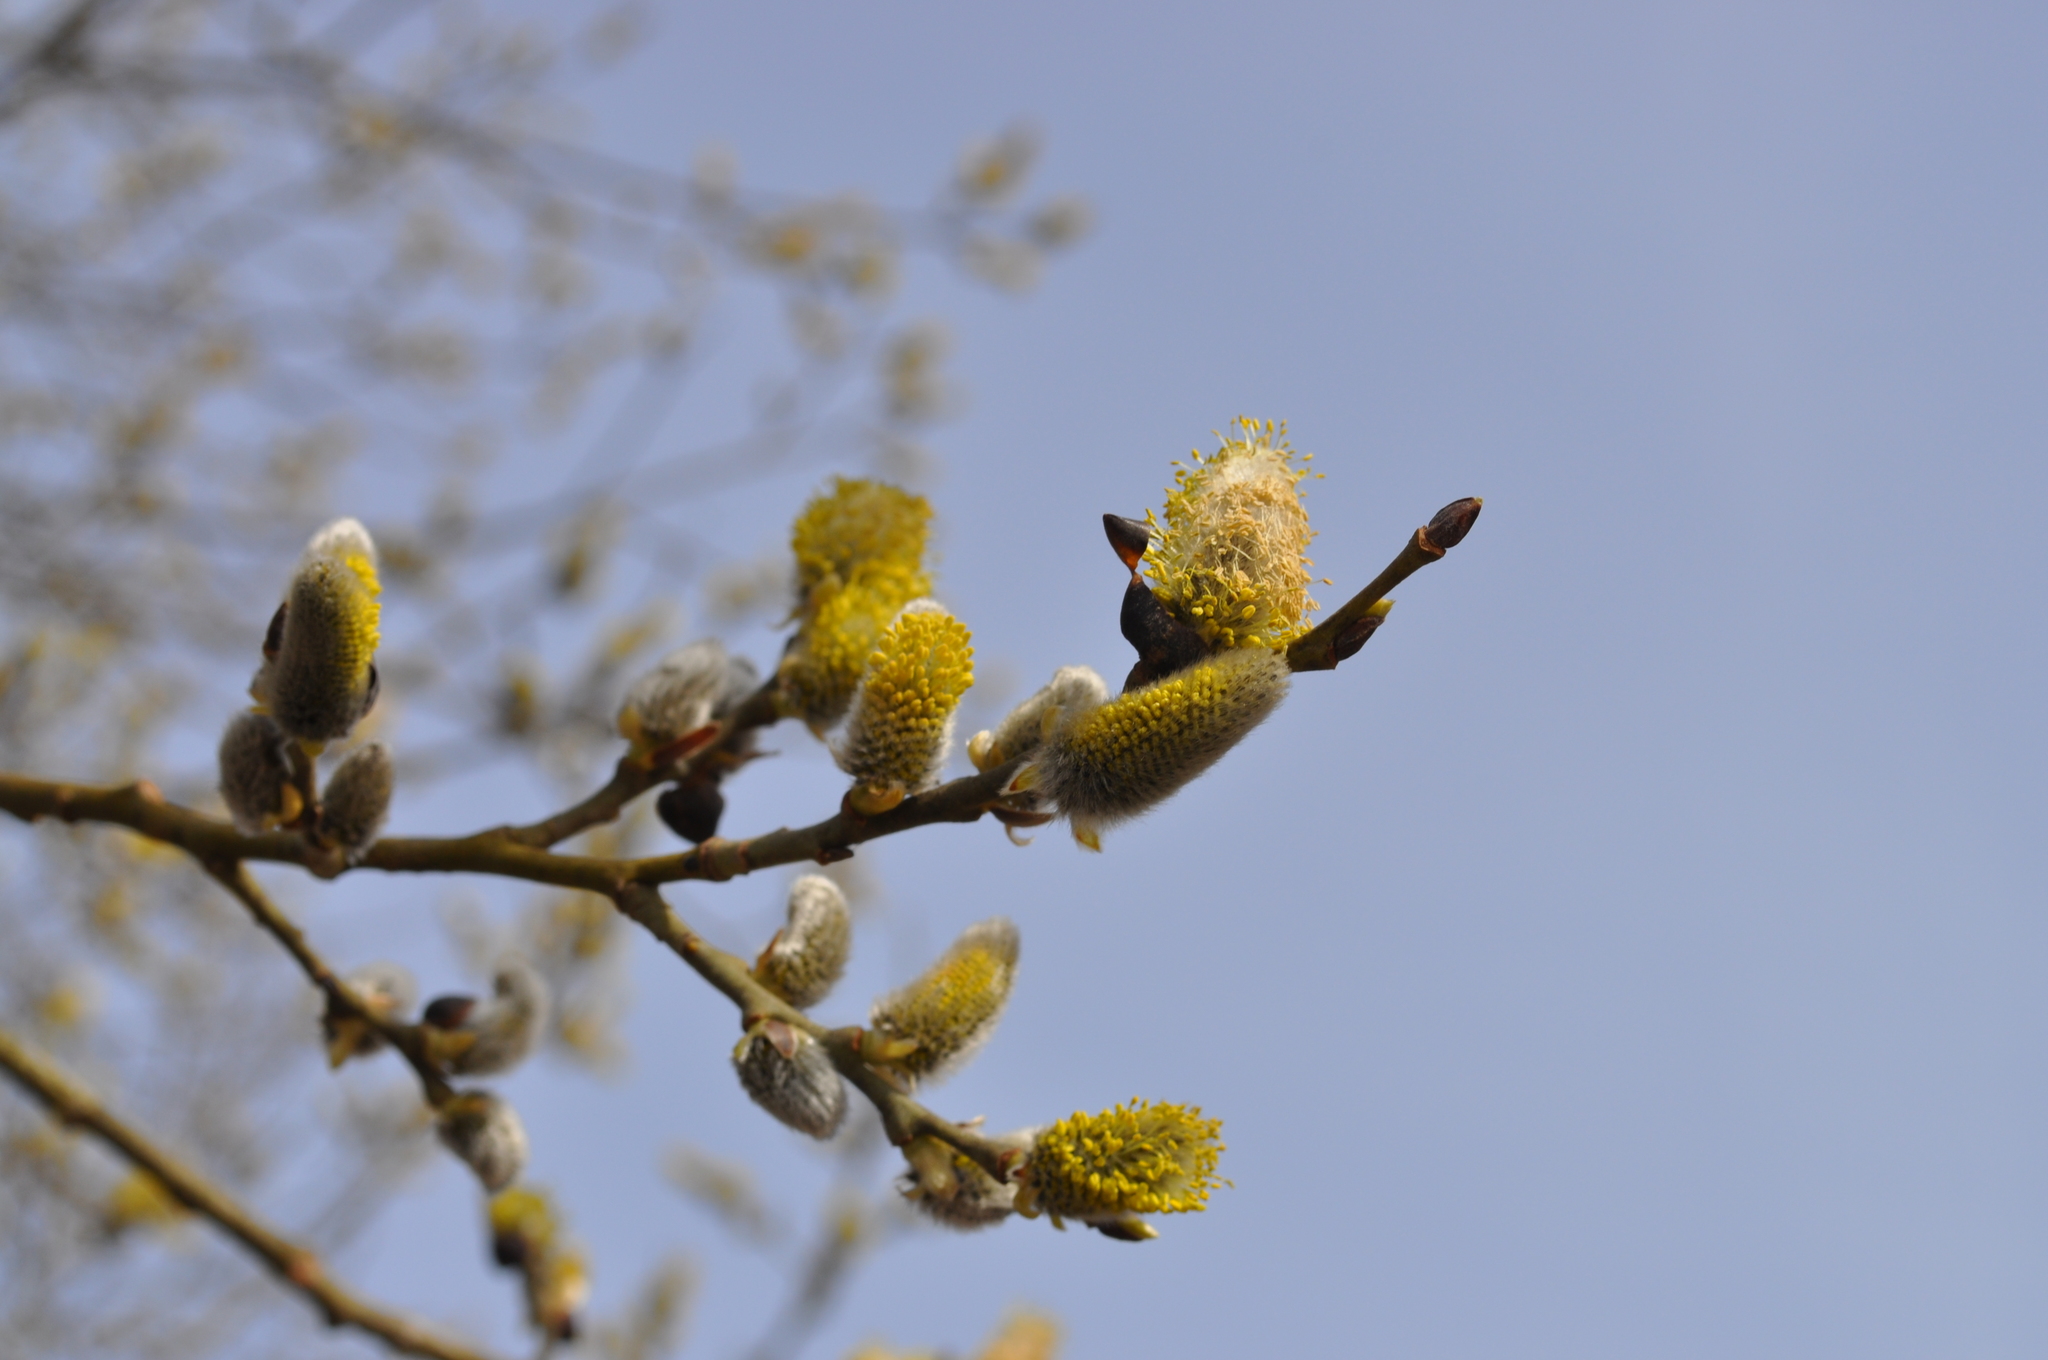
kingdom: Plantae
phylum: Tracheophyta
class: Magnoliopsida
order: Malpighiales
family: Salicaceae
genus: Salix
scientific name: Salix caprea
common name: Goat willow
